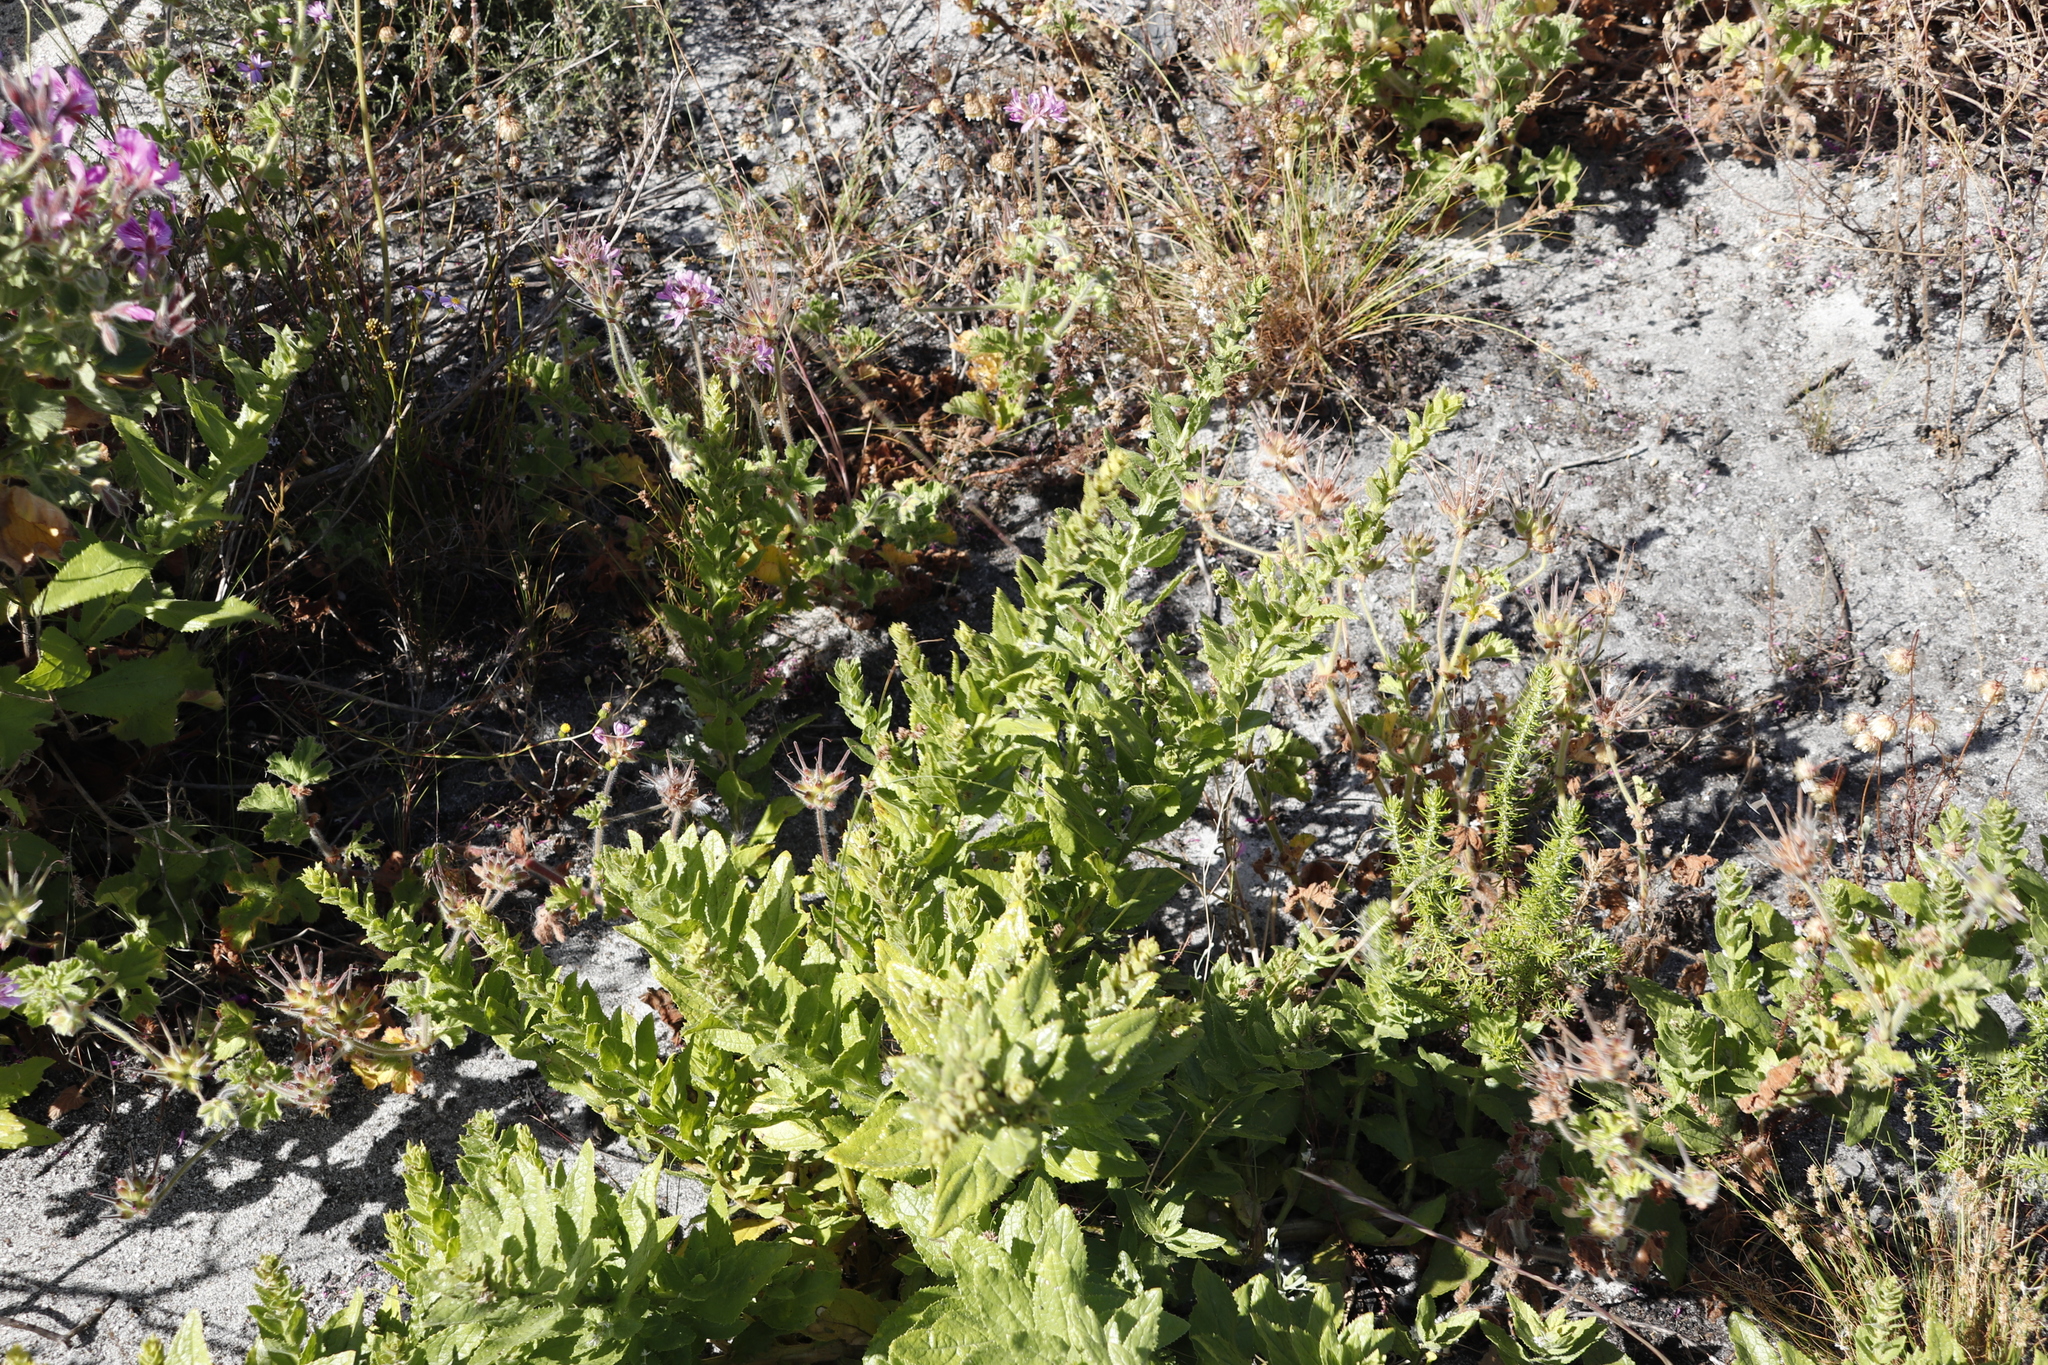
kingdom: Plantae
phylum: Tracheophyta
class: Magnoliopsida
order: Lamiales
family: Scrophulariaceae
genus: Oftia
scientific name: Oftia africana
